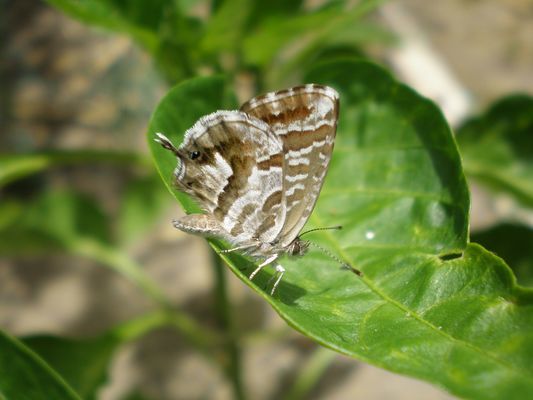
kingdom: Animalia
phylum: Arthropoda
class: Insecta
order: Lepidoptera
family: Lycaenidae
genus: Cacyreus
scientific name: Cacyreus marshalli
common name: Geranium bronze
